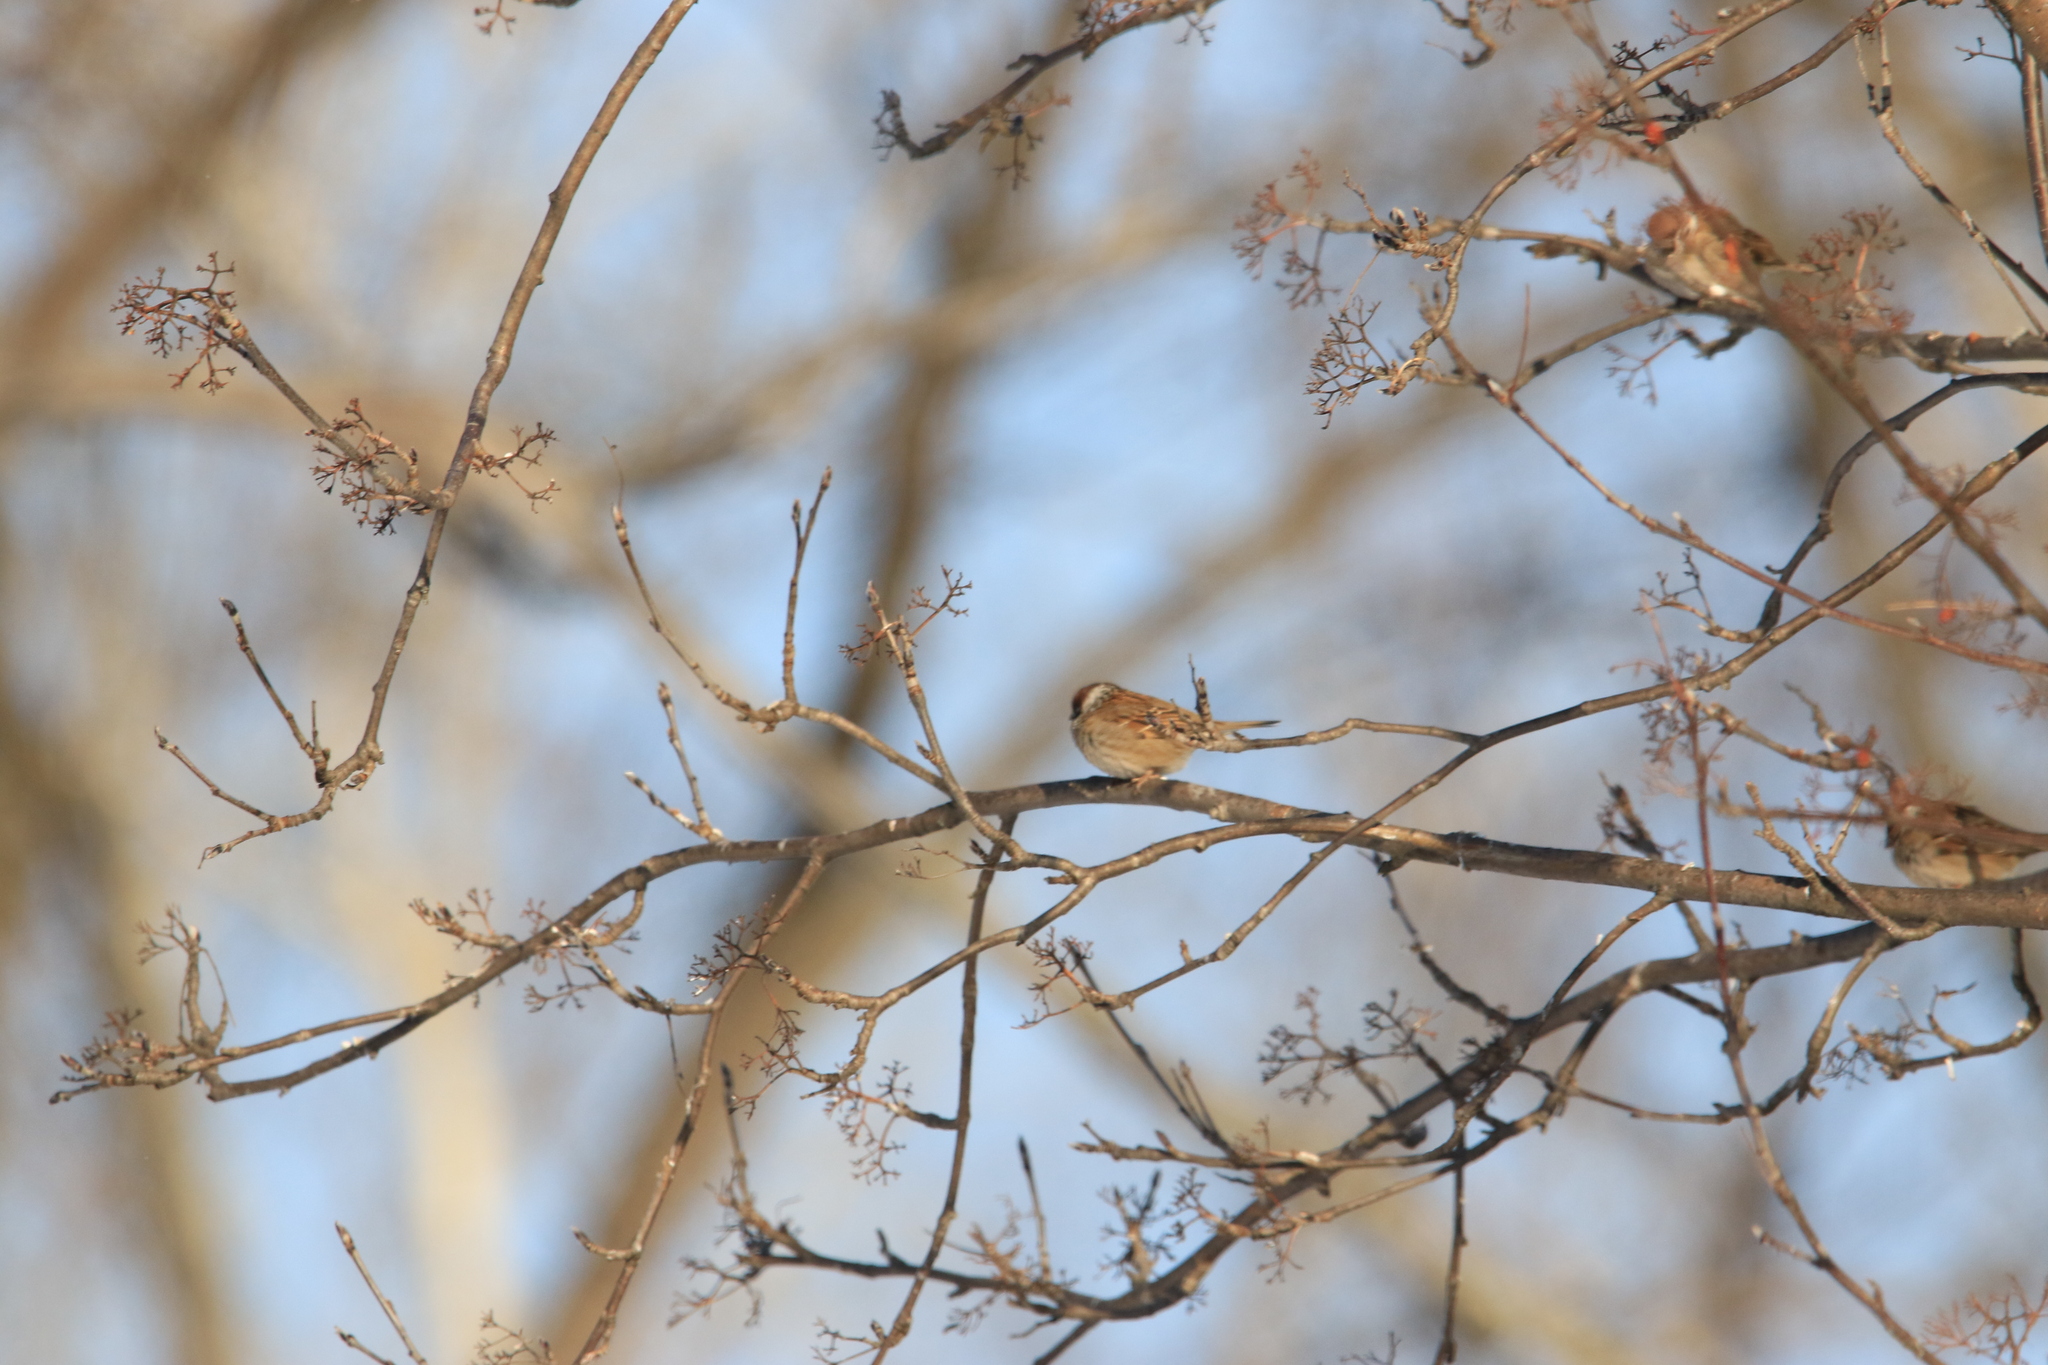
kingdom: Animalia
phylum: Chordata
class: Aves
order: Passeriformes
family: Passeridae
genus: Passer
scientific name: Passer montanus
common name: Eurasian tree sparrow
